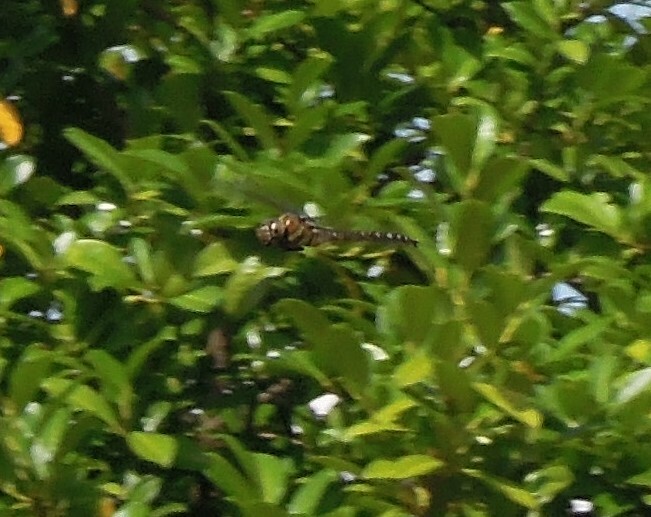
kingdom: Animalia
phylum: Arthropoda
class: Insecta
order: Odonata
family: Aeshnidae
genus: Aeshna
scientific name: Aeshna mixta
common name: Migrant hawker
